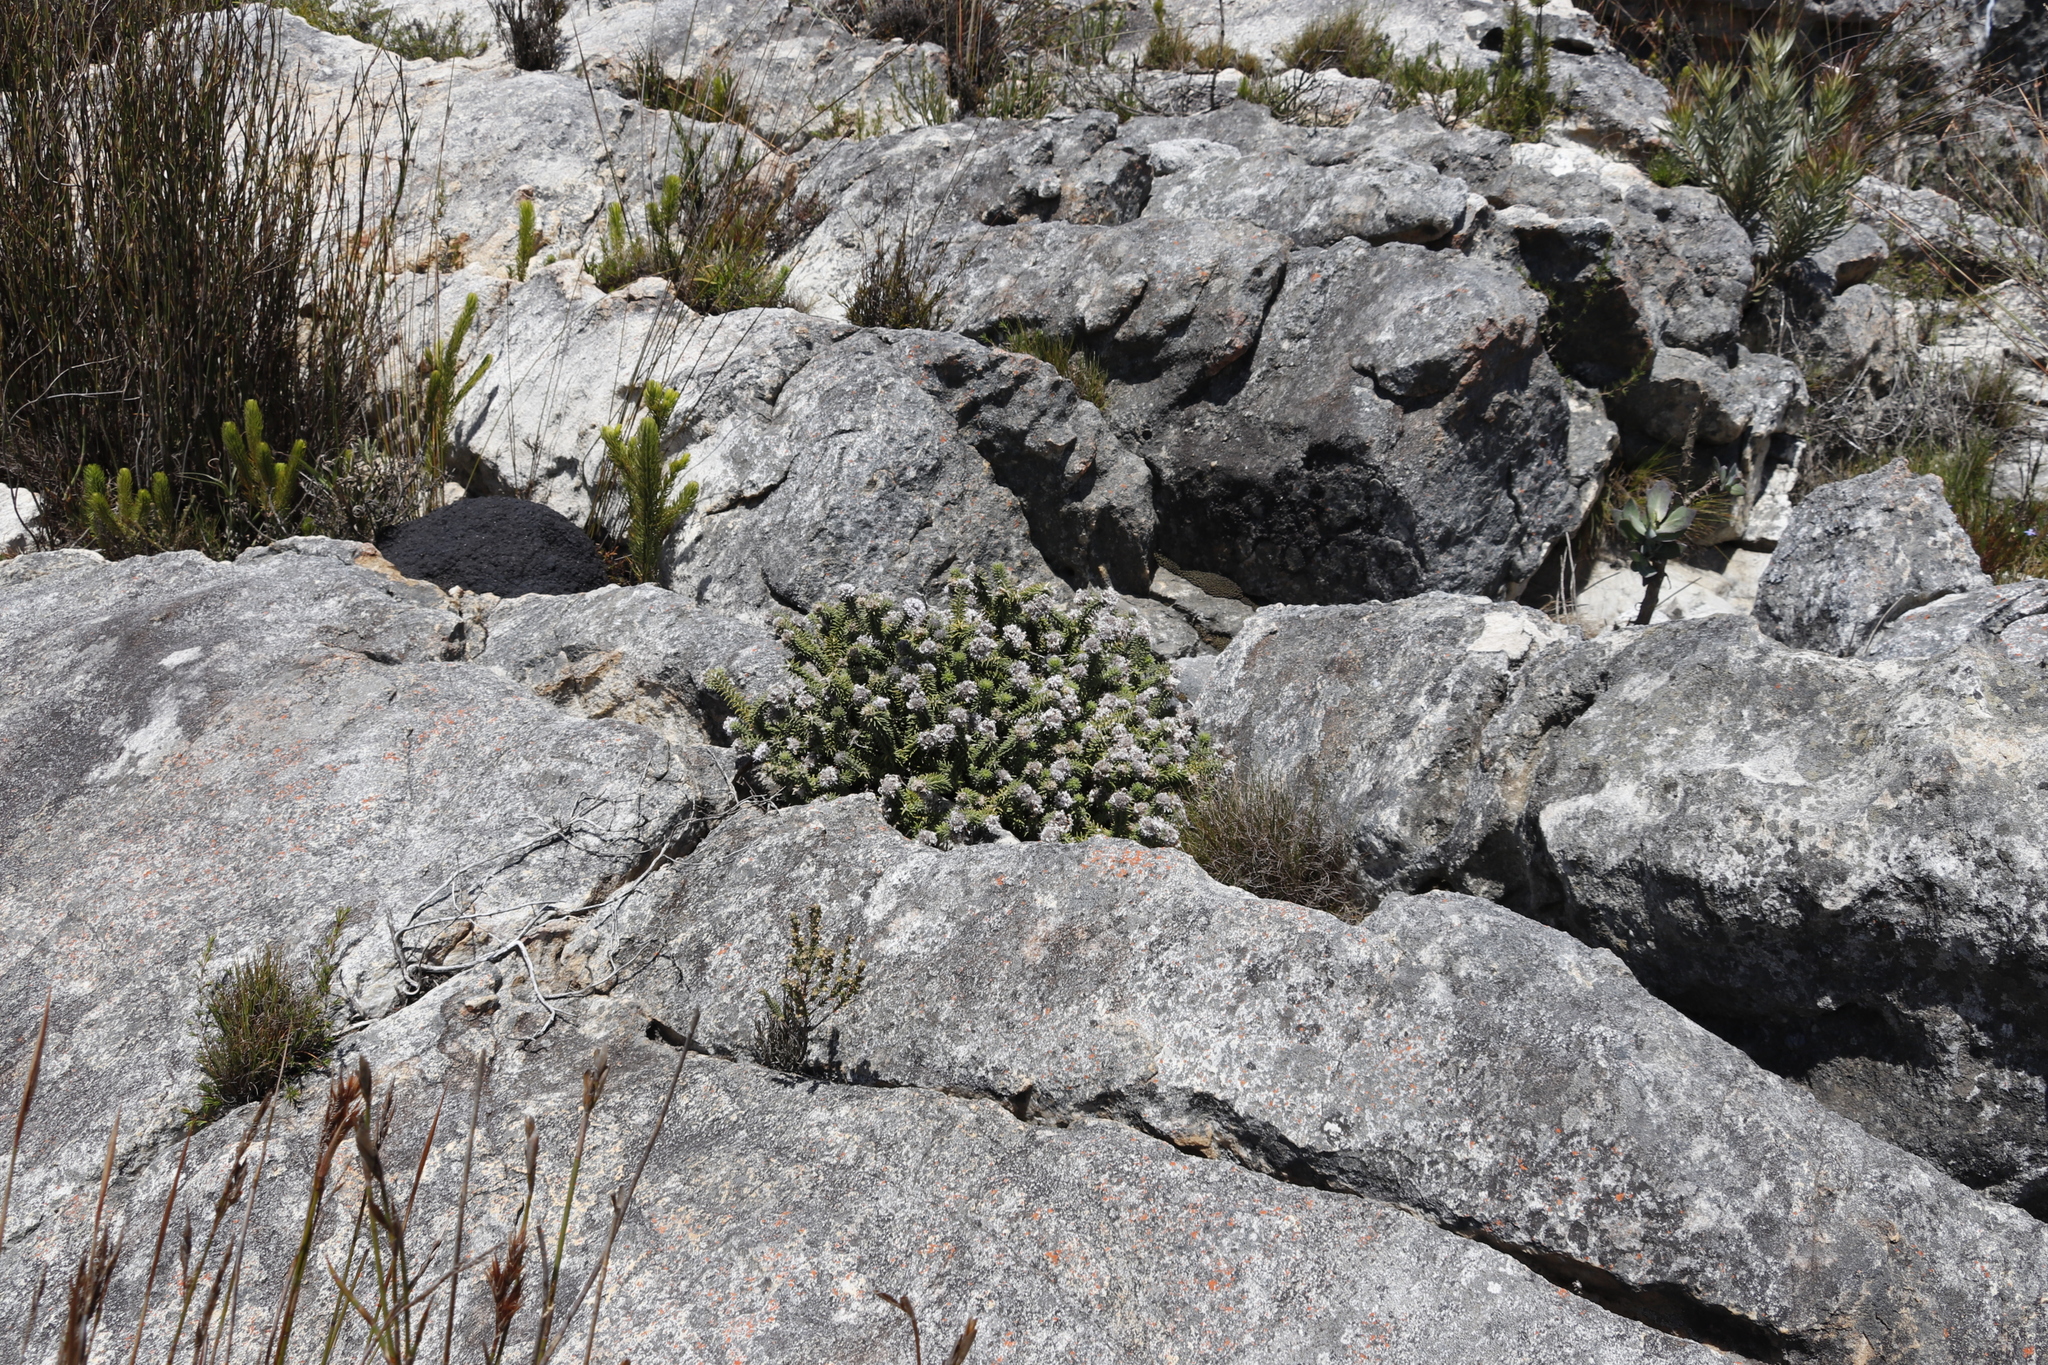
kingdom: Plantae
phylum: Tracheophyta
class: Magnoliopsida
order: Lamiales
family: Stilbaceae
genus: Kogelbergia
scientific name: Kogelbergia verticillata
